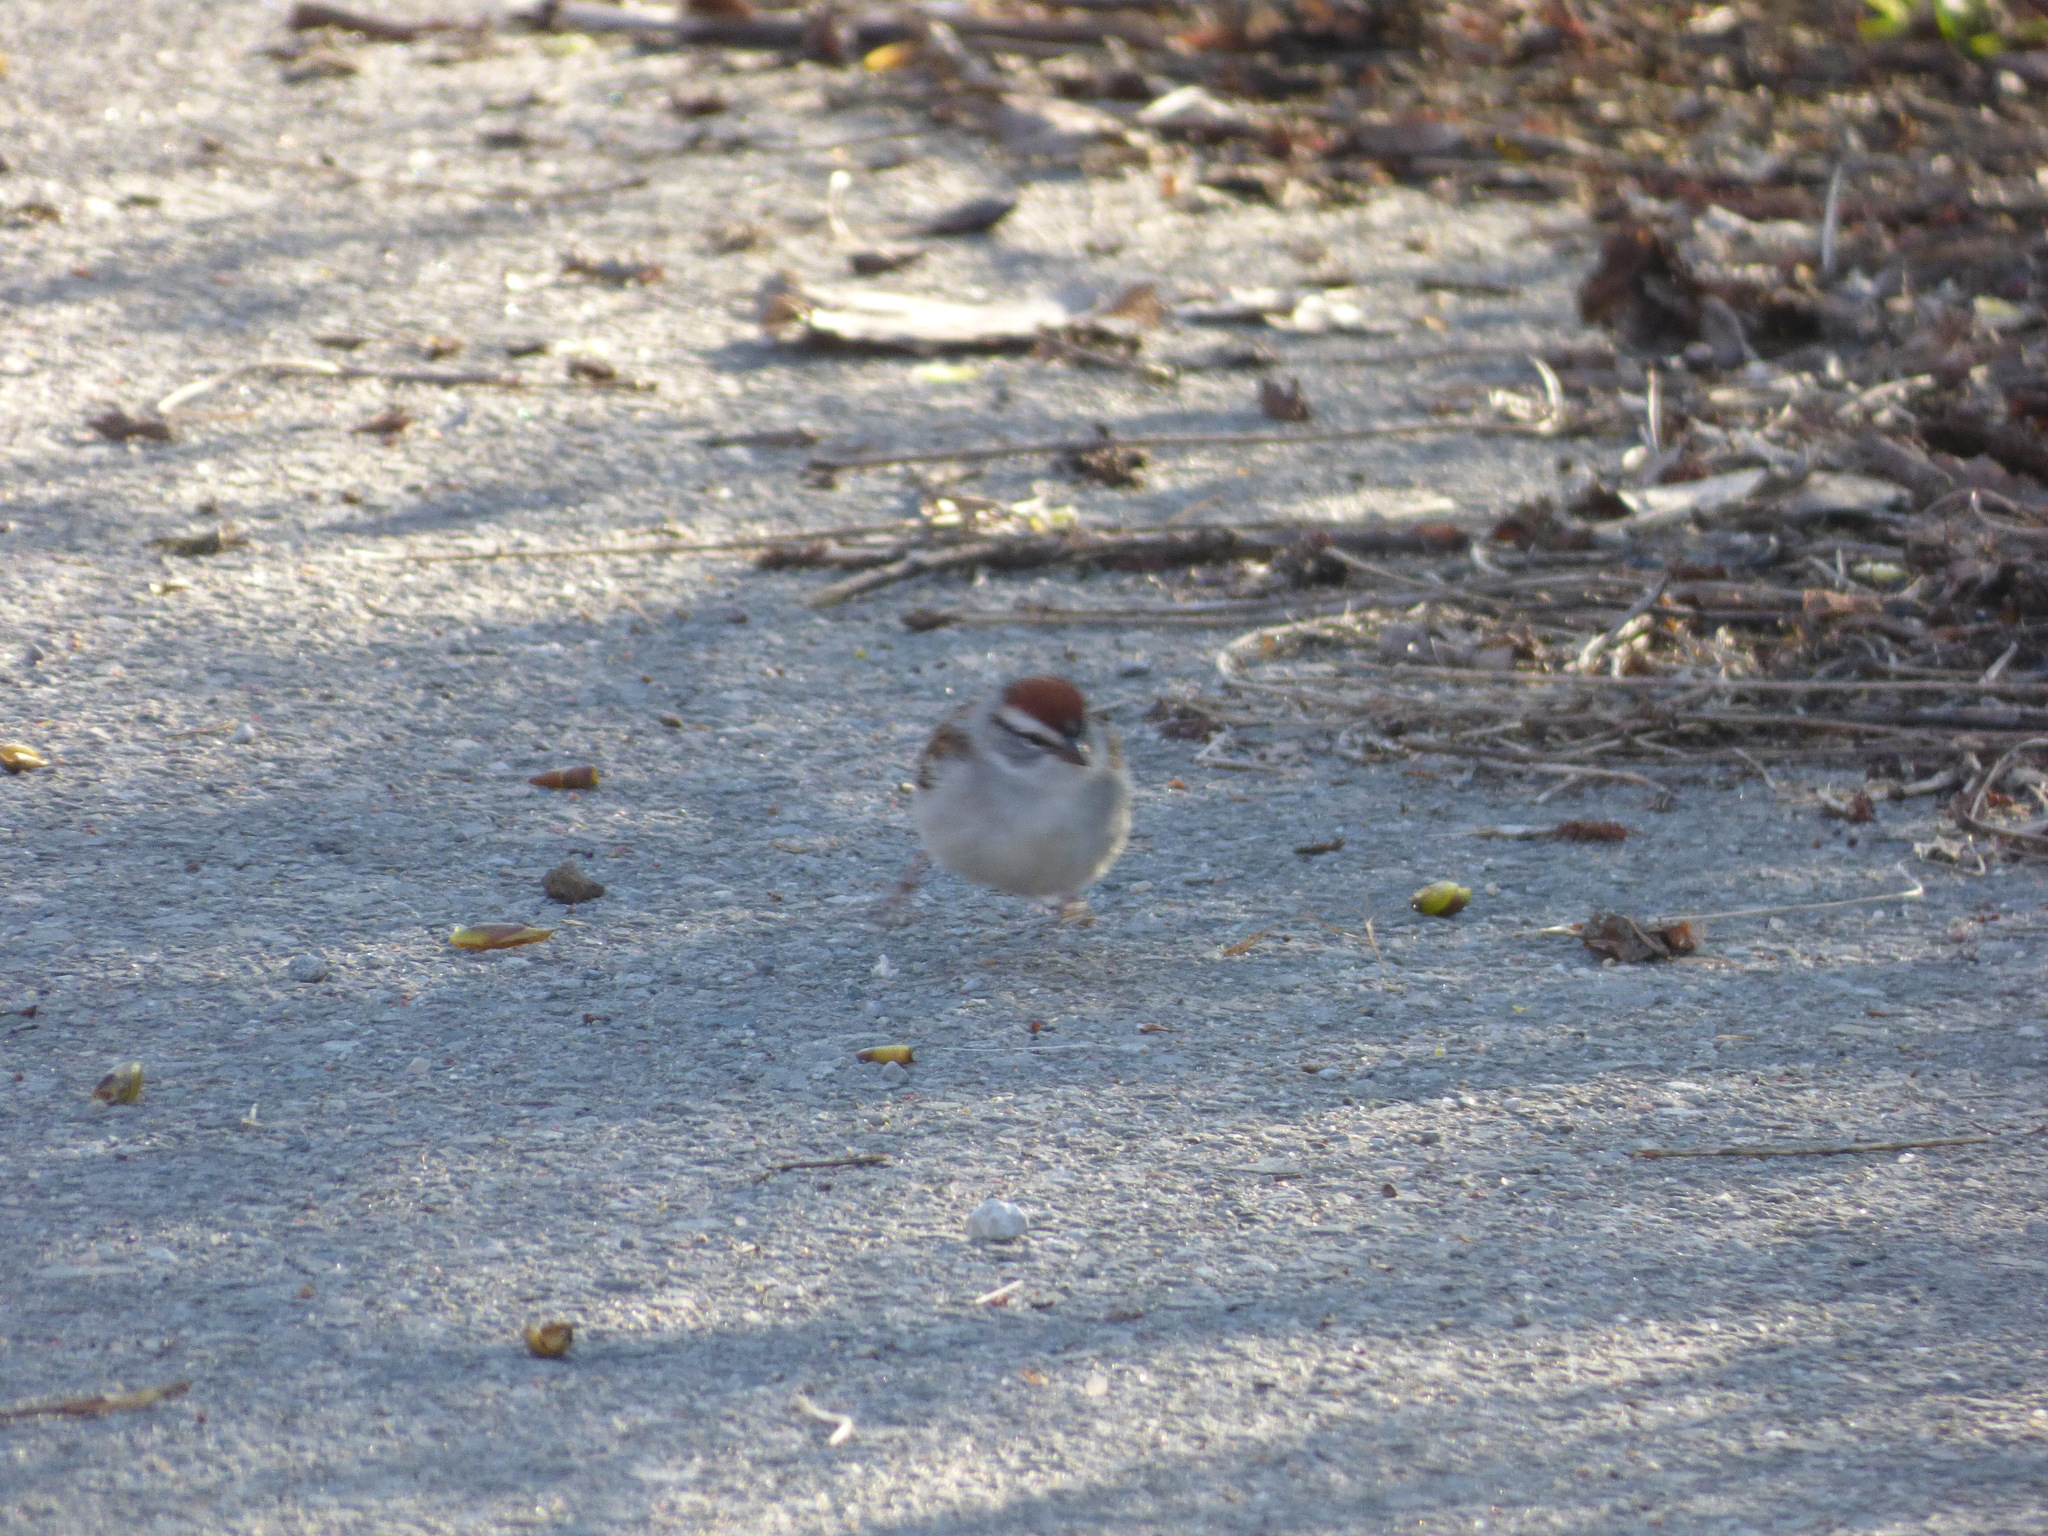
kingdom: Animalia
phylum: Chordata
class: Aves
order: Passeriformes
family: Passerellidae
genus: Spizella
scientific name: Spizella passerina
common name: Chipping sparrow
